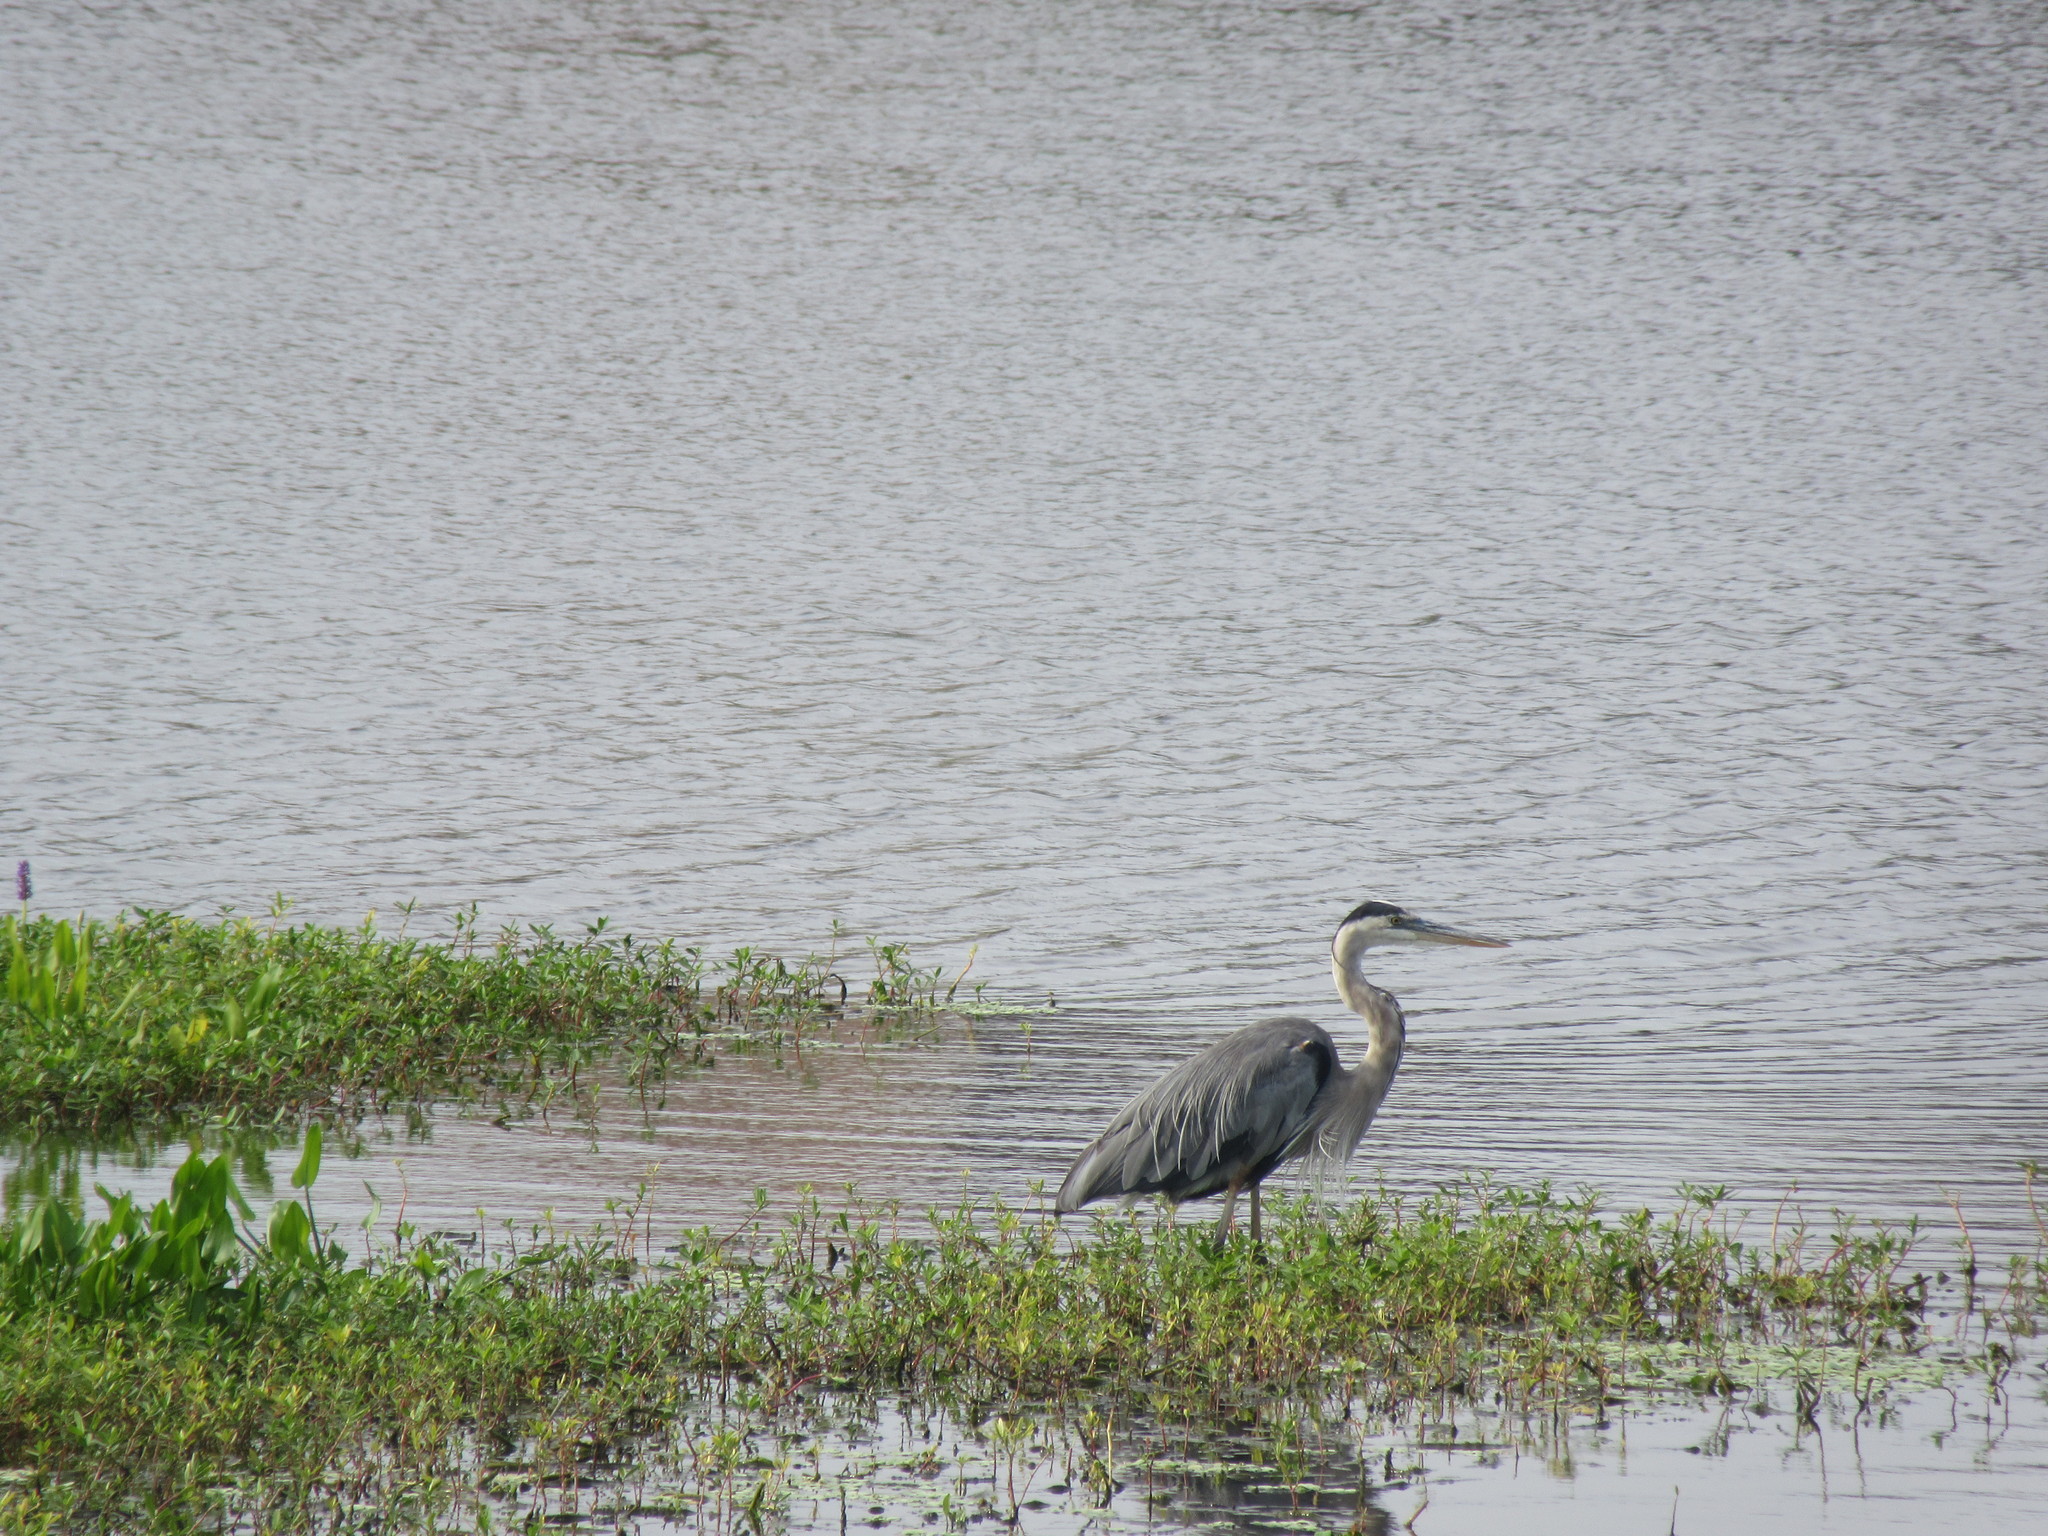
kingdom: Animalia
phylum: Chordata
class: Aves
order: Pelecaniformes
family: Ardeidae
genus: Ardea
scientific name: Ardea herodias
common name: Great blue heron
